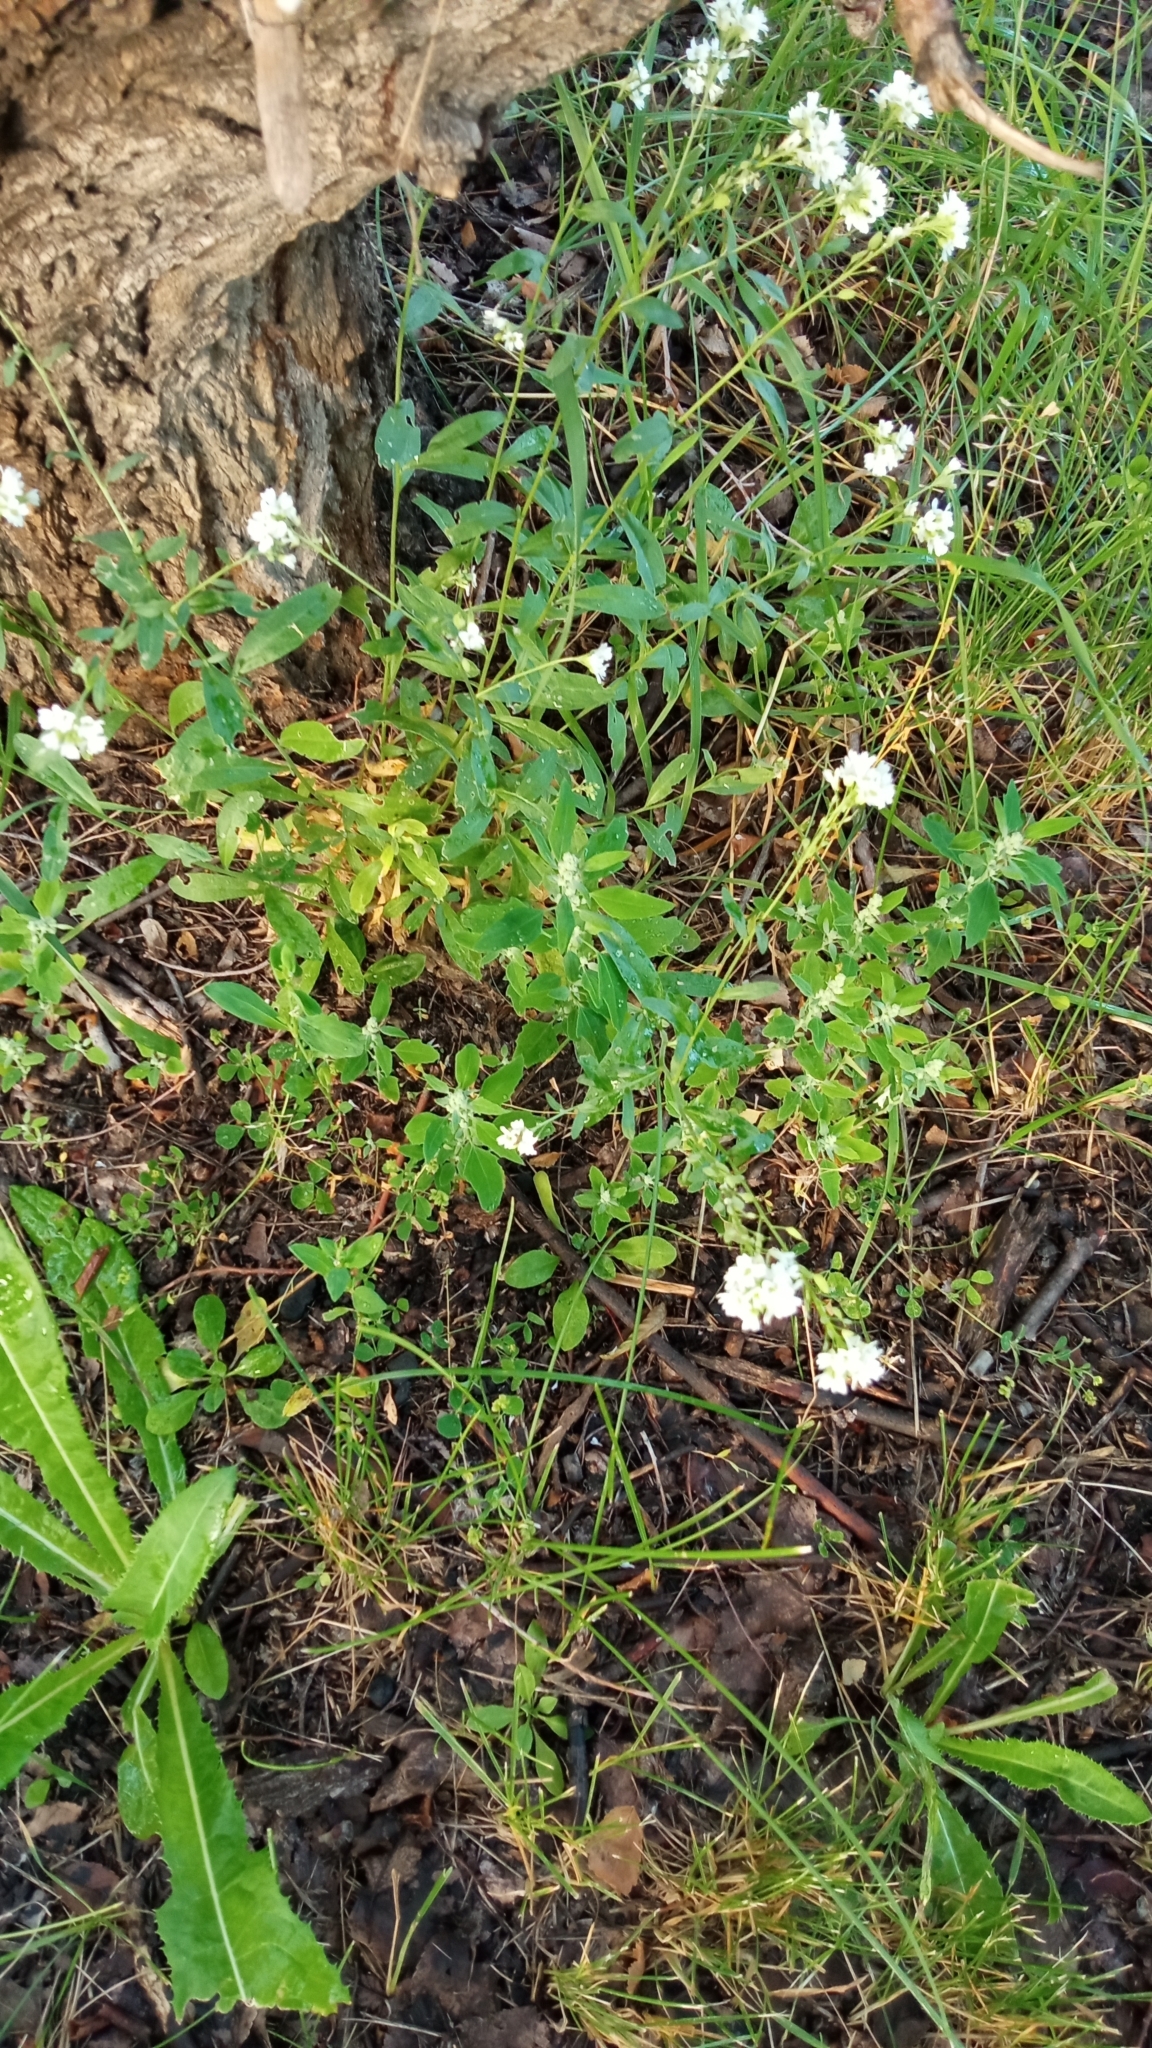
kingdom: Plantae
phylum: Tracheophyta
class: Magnoliopsida
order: Brassicales
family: Brassicaceae
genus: Berteroa
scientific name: Berteroa incana
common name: Hoary alison
